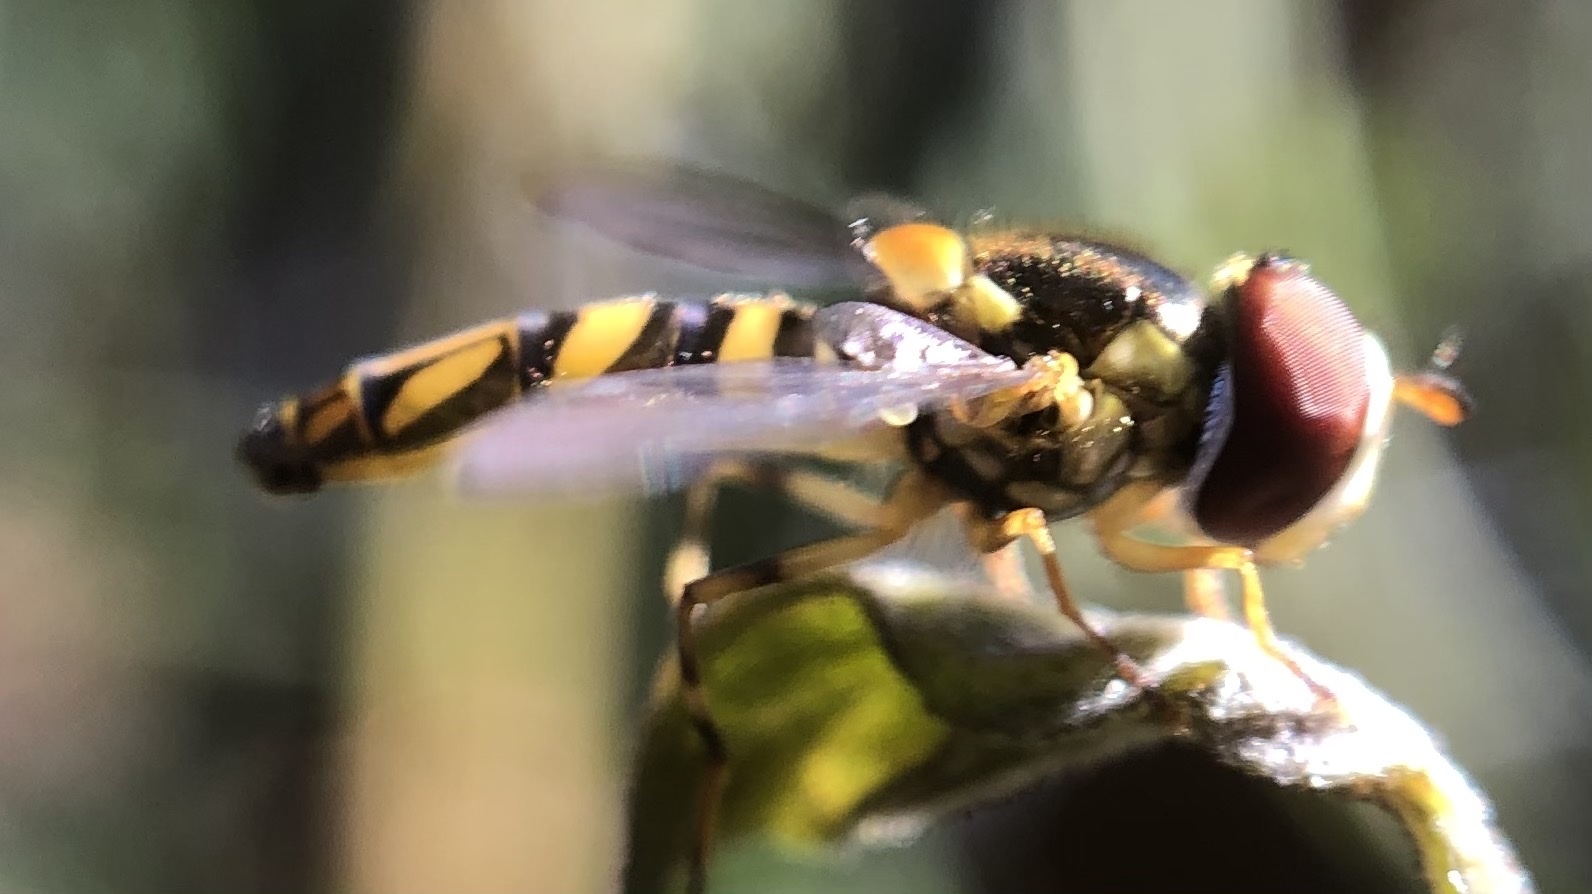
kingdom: Animalia
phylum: Arthropoda
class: Insecta
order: Diptera
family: Syrphidae
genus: Allograpta
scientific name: Allograpta obliqua
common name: Common oblique syrphid
